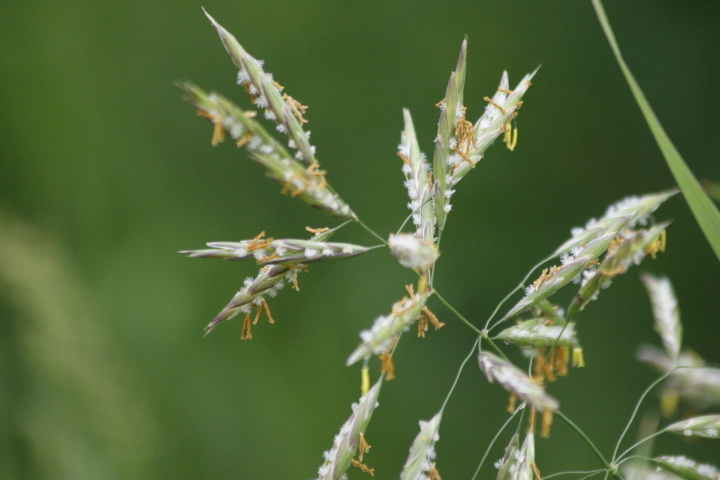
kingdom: Plantae
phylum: Tracheophyta
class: Liliopsida
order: Poales
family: Poaceae
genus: Bromus
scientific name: Bromus inermis
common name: Smooth brome
